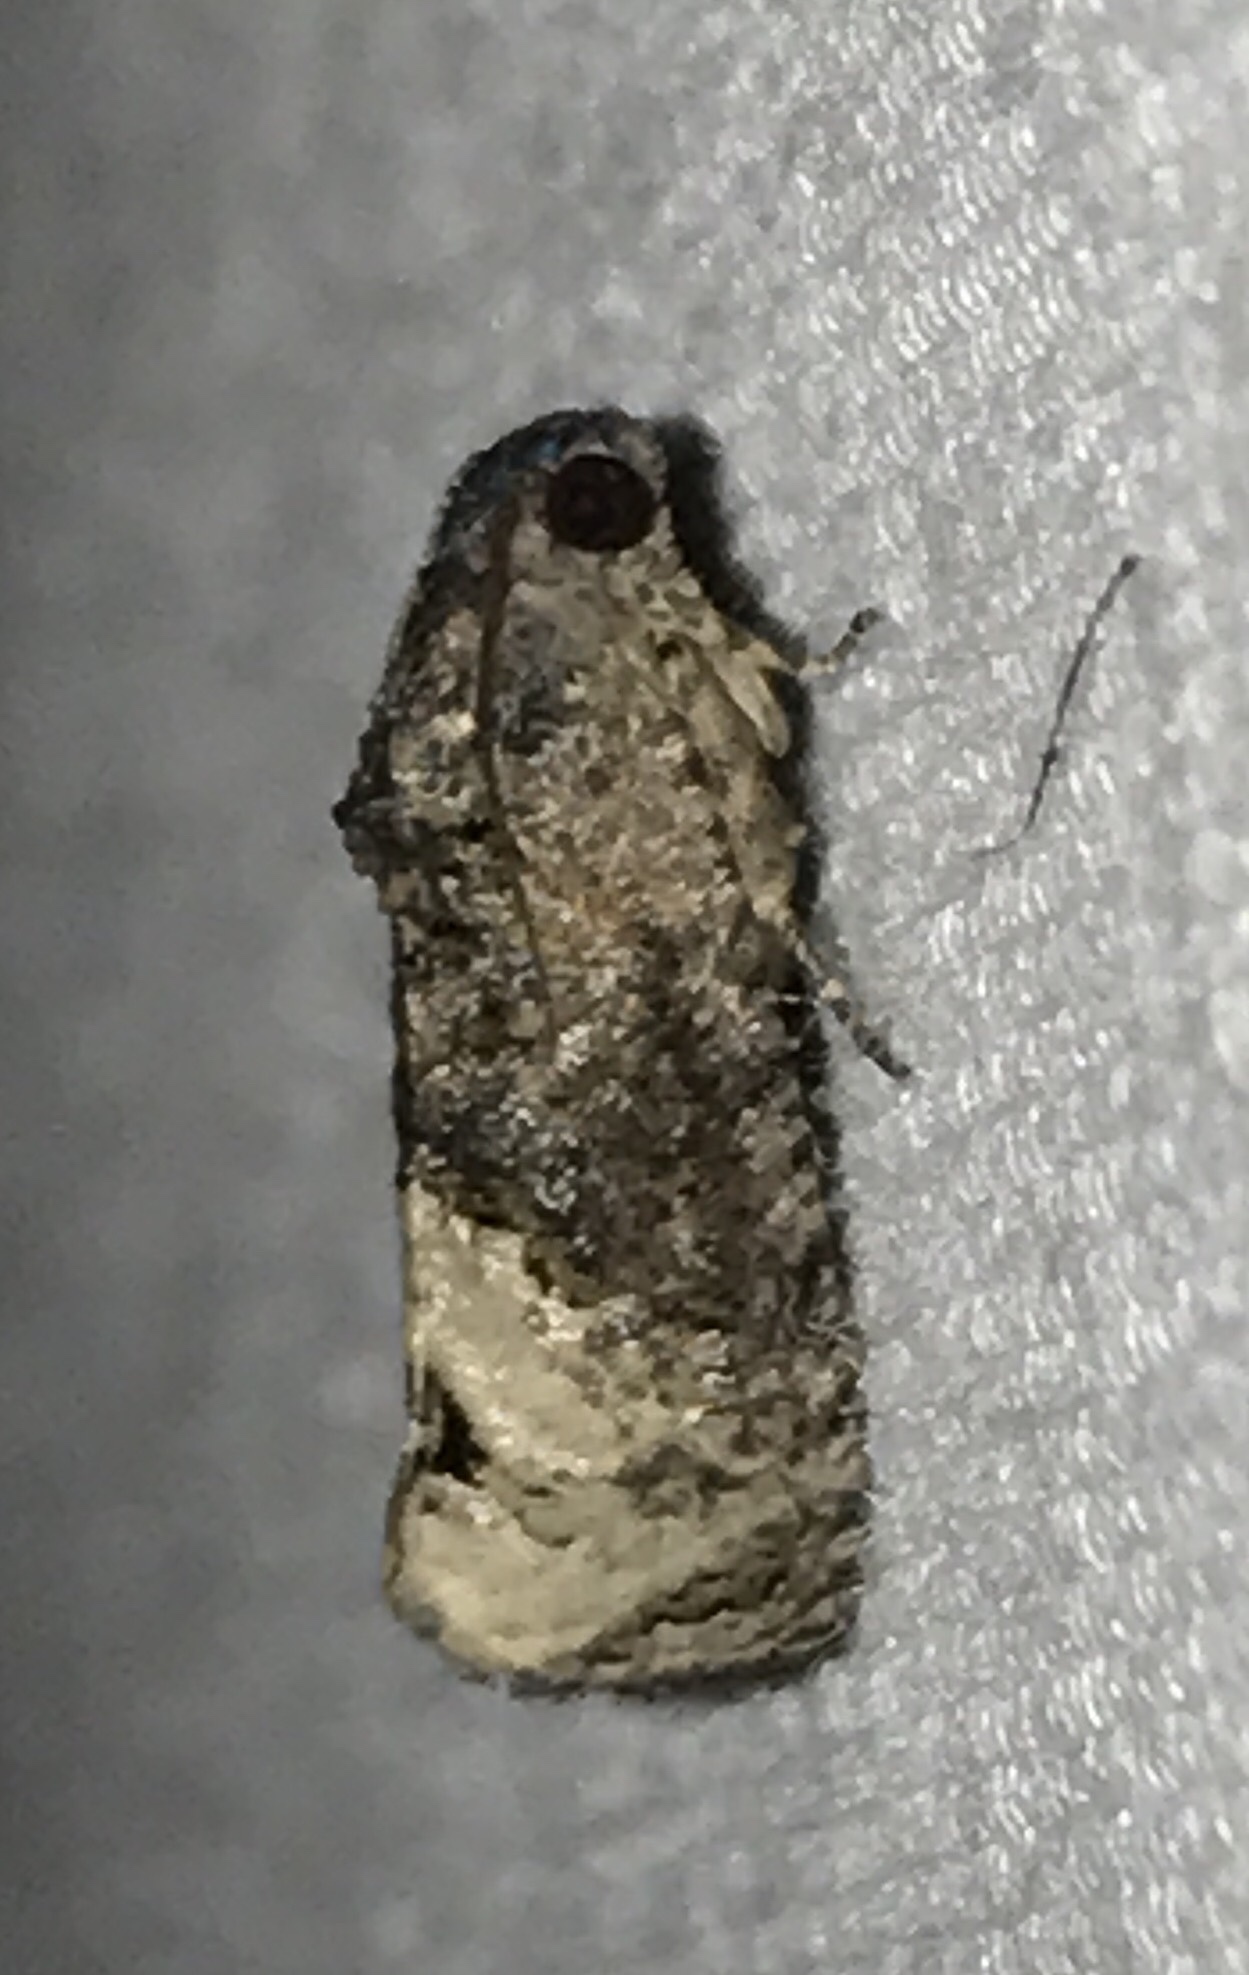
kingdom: Animalia
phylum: Arthropoda
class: Insecta
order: Lepidoptera
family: Tortricidae
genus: Ecdytolopha
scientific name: Ecdytolopha insiticiana
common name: Locust twig borer moth
